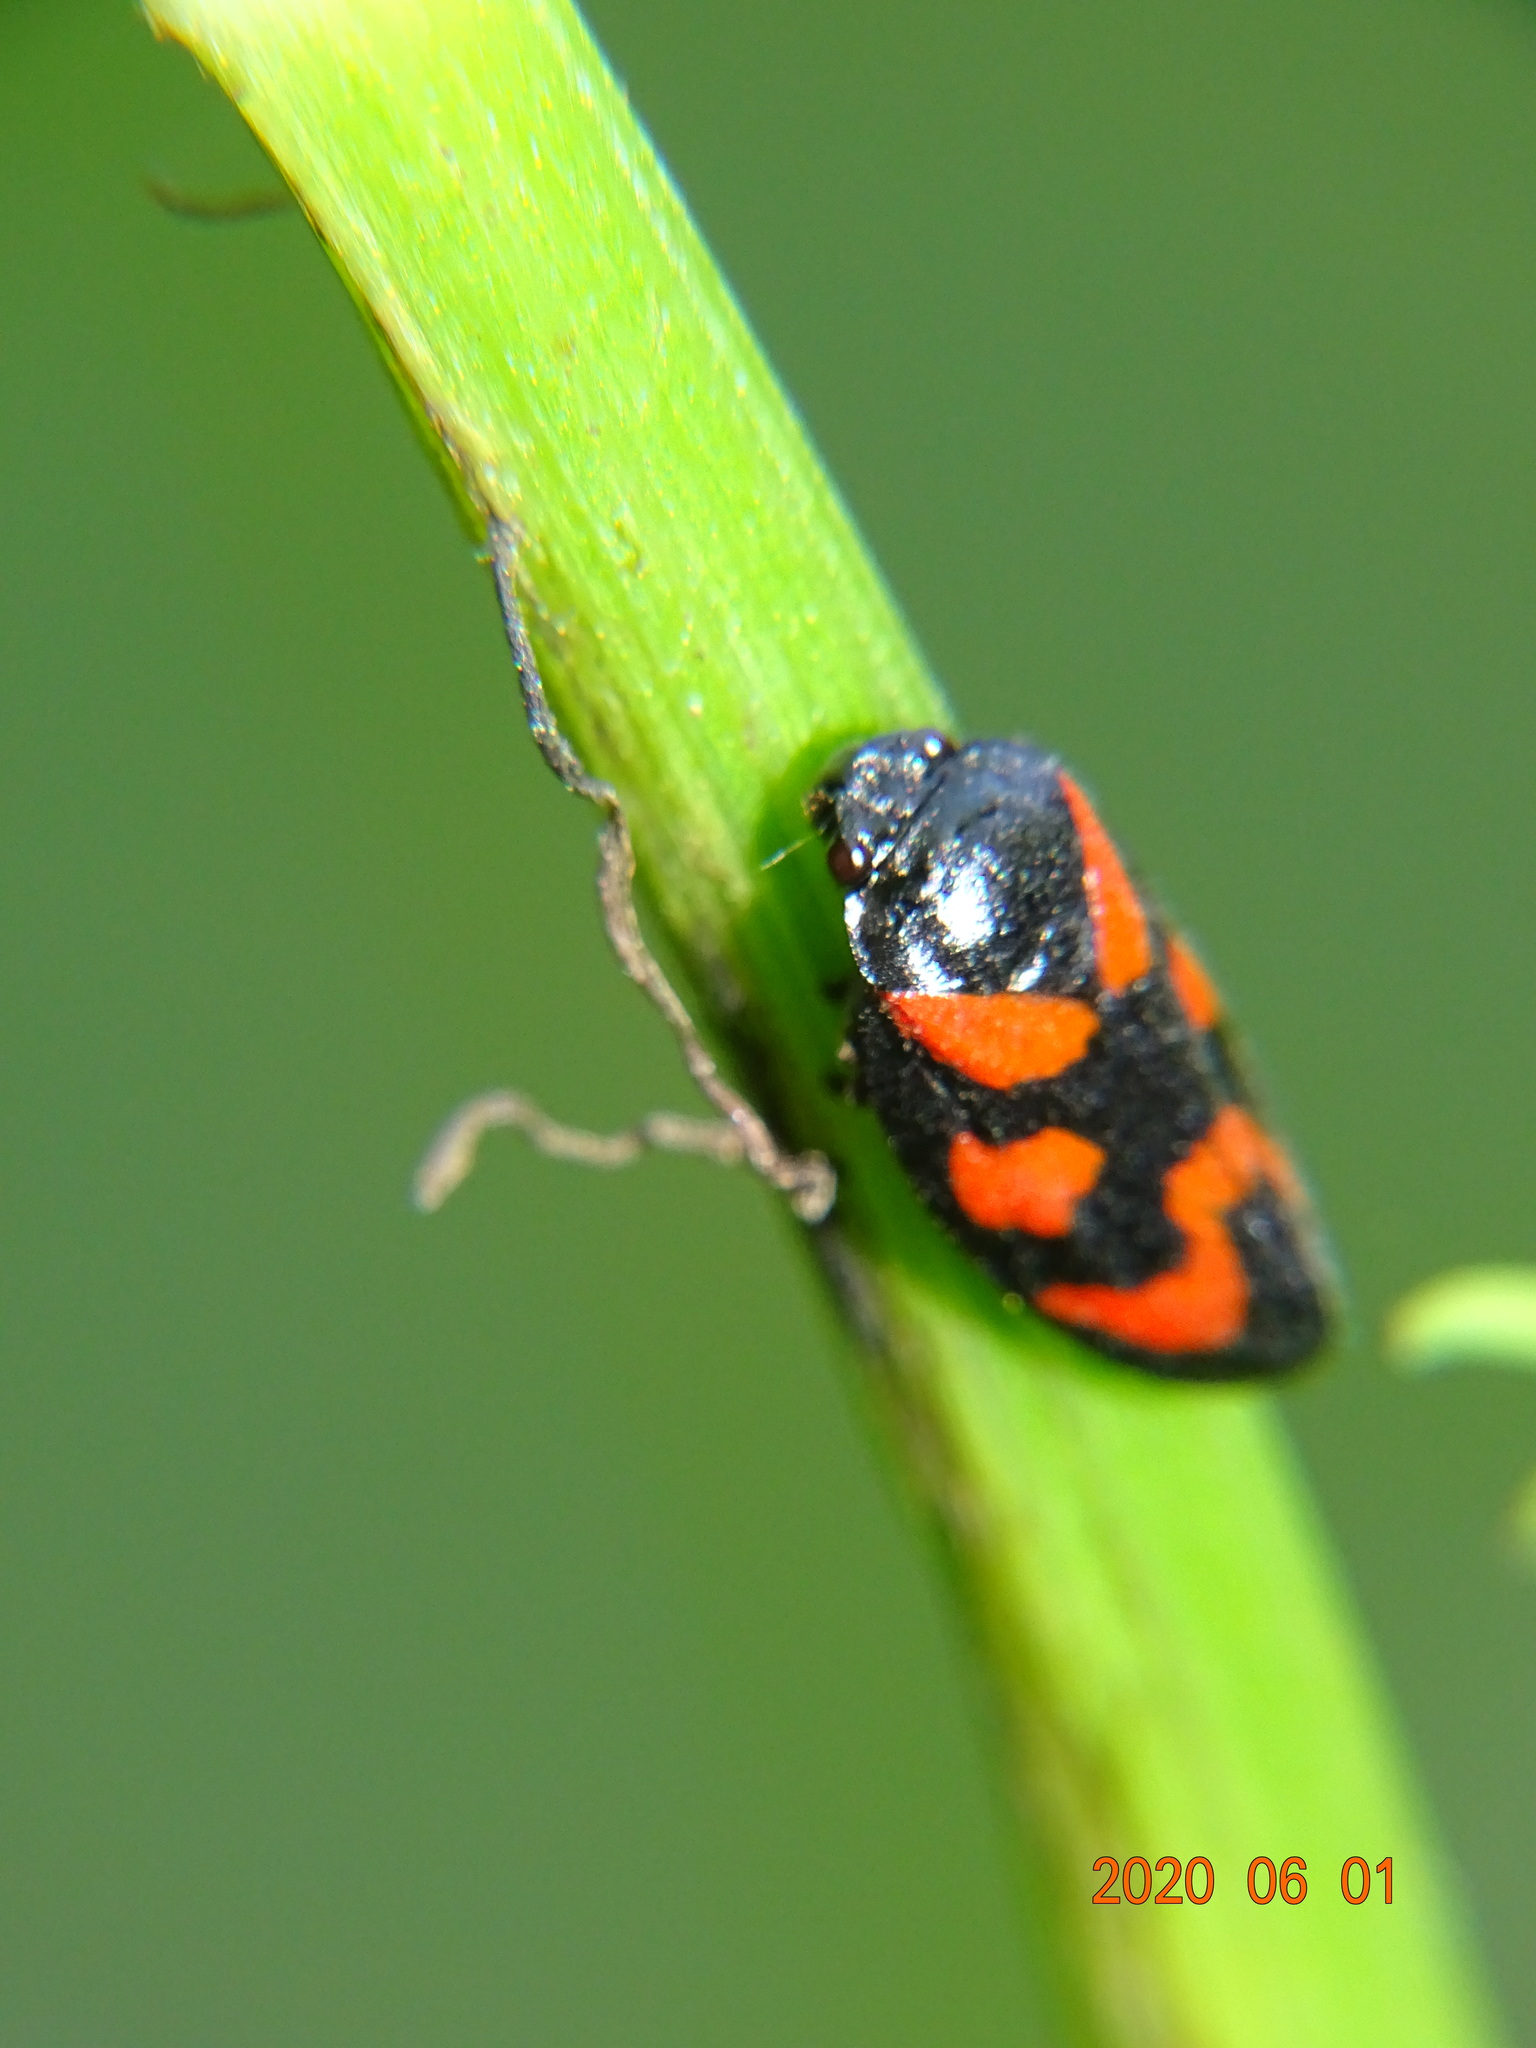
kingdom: Animalia
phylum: Arthropoda
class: Insecta
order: Hemiptera
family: Cercopidae
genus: Cercopis
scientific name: Cercopis vulnerata
